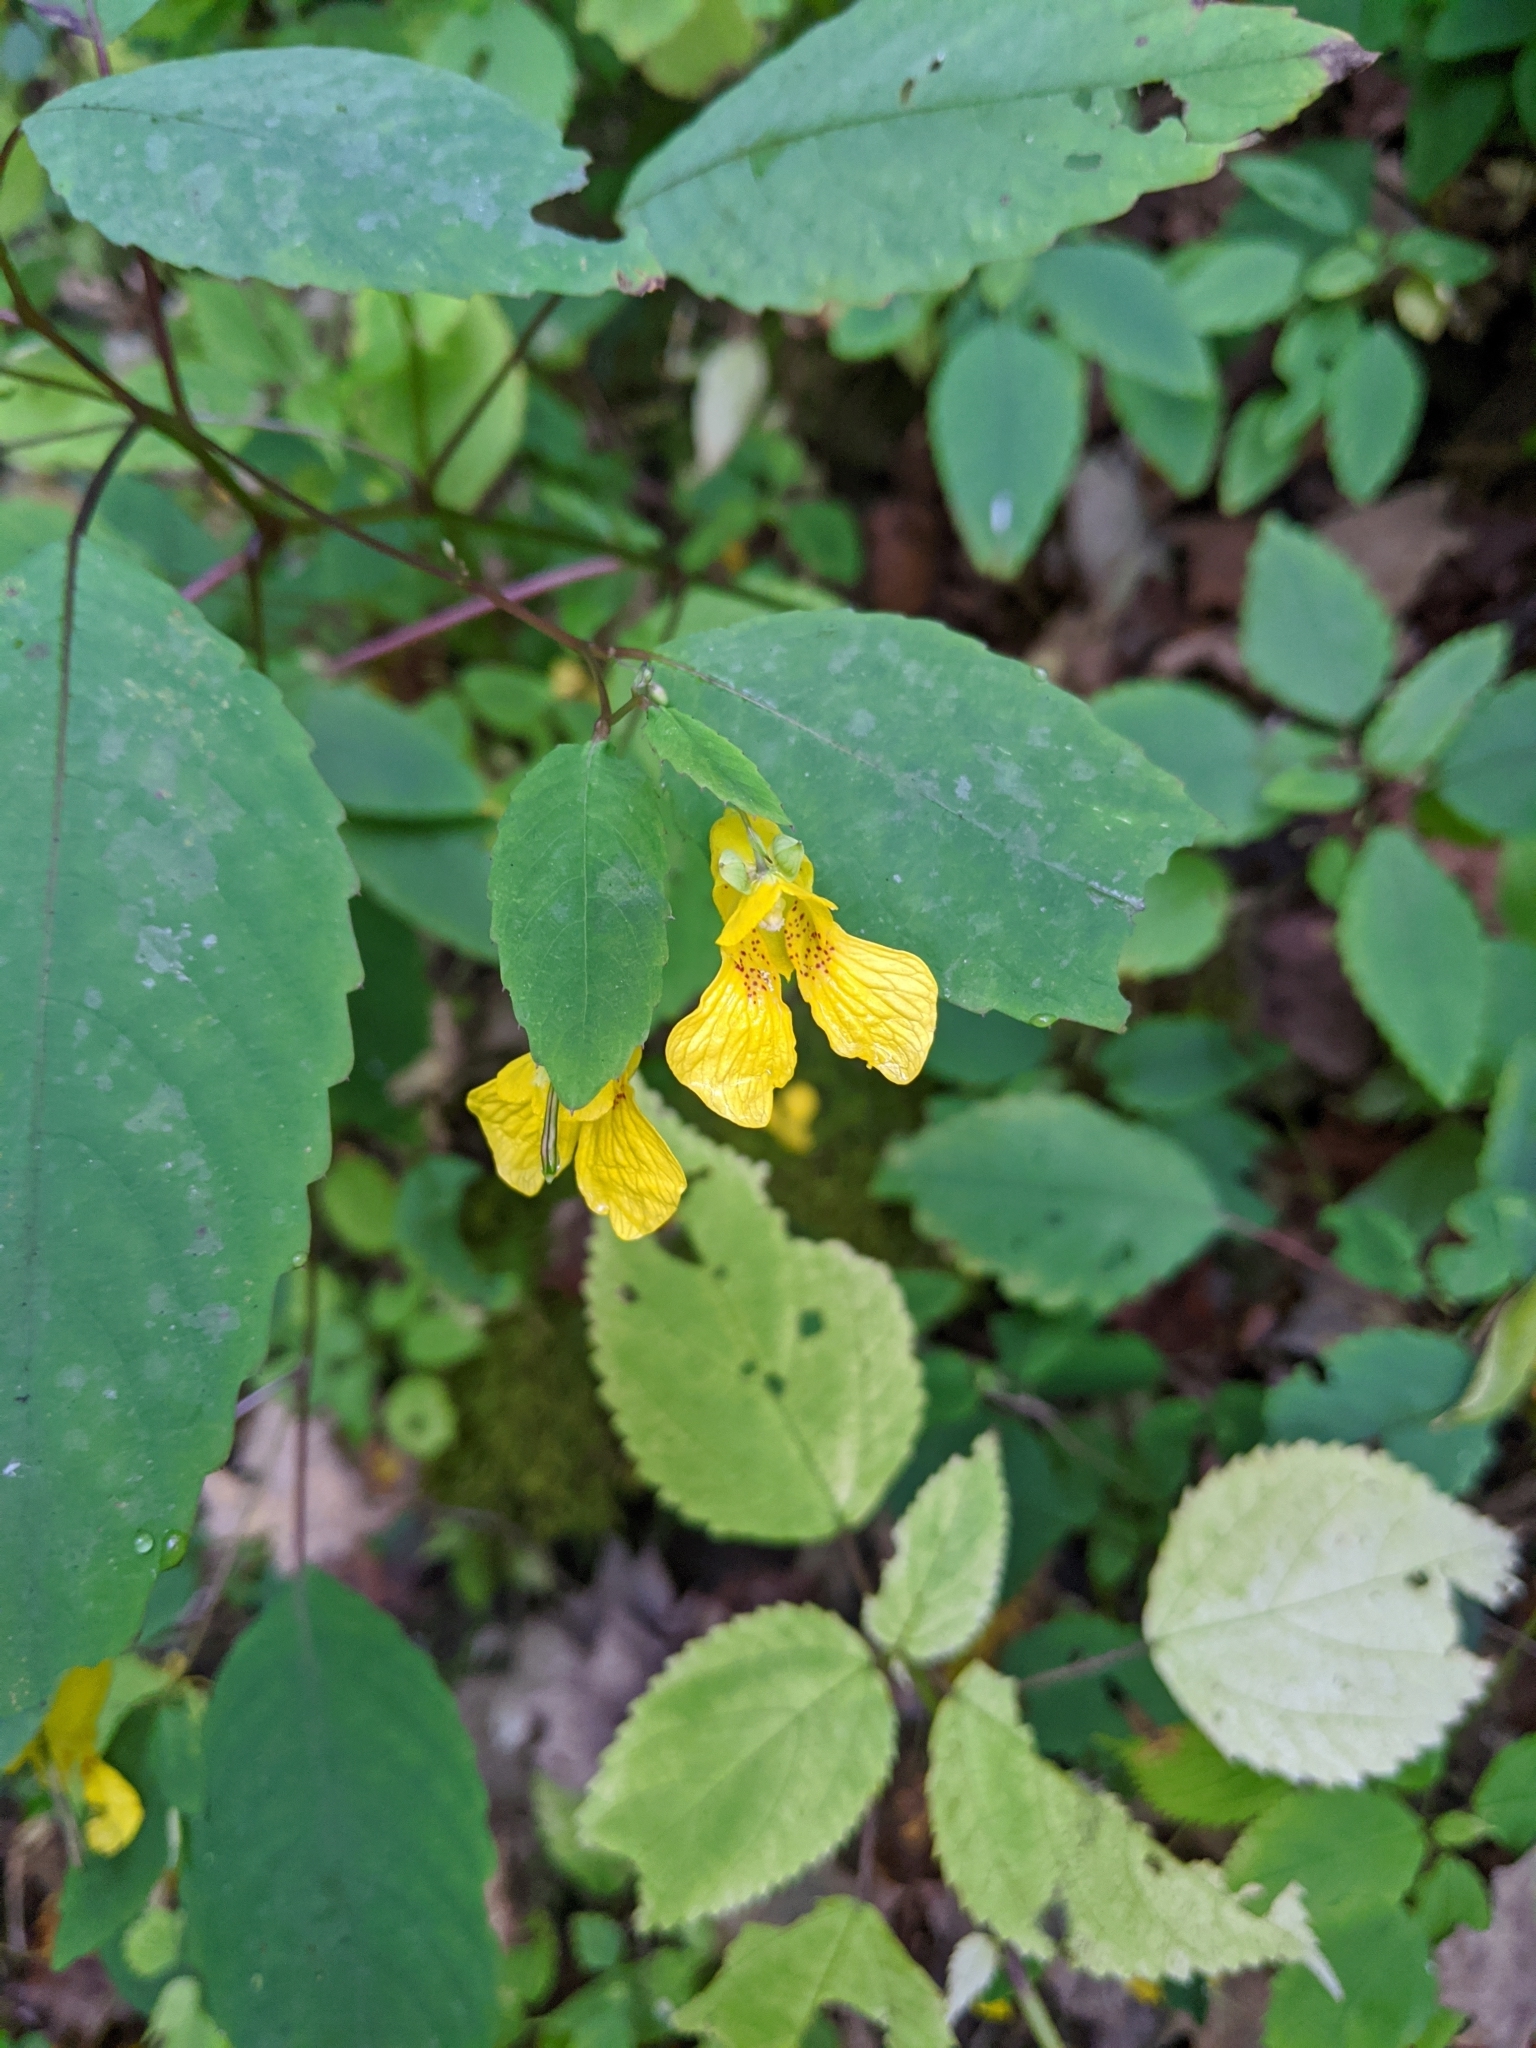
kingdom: Plantae
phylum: Tracheophyta
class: Magnoliopsida
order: Ericales
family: Balsaminaceae
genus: Impatiens
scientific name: Impatiens pallida
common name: Pale snapweed
